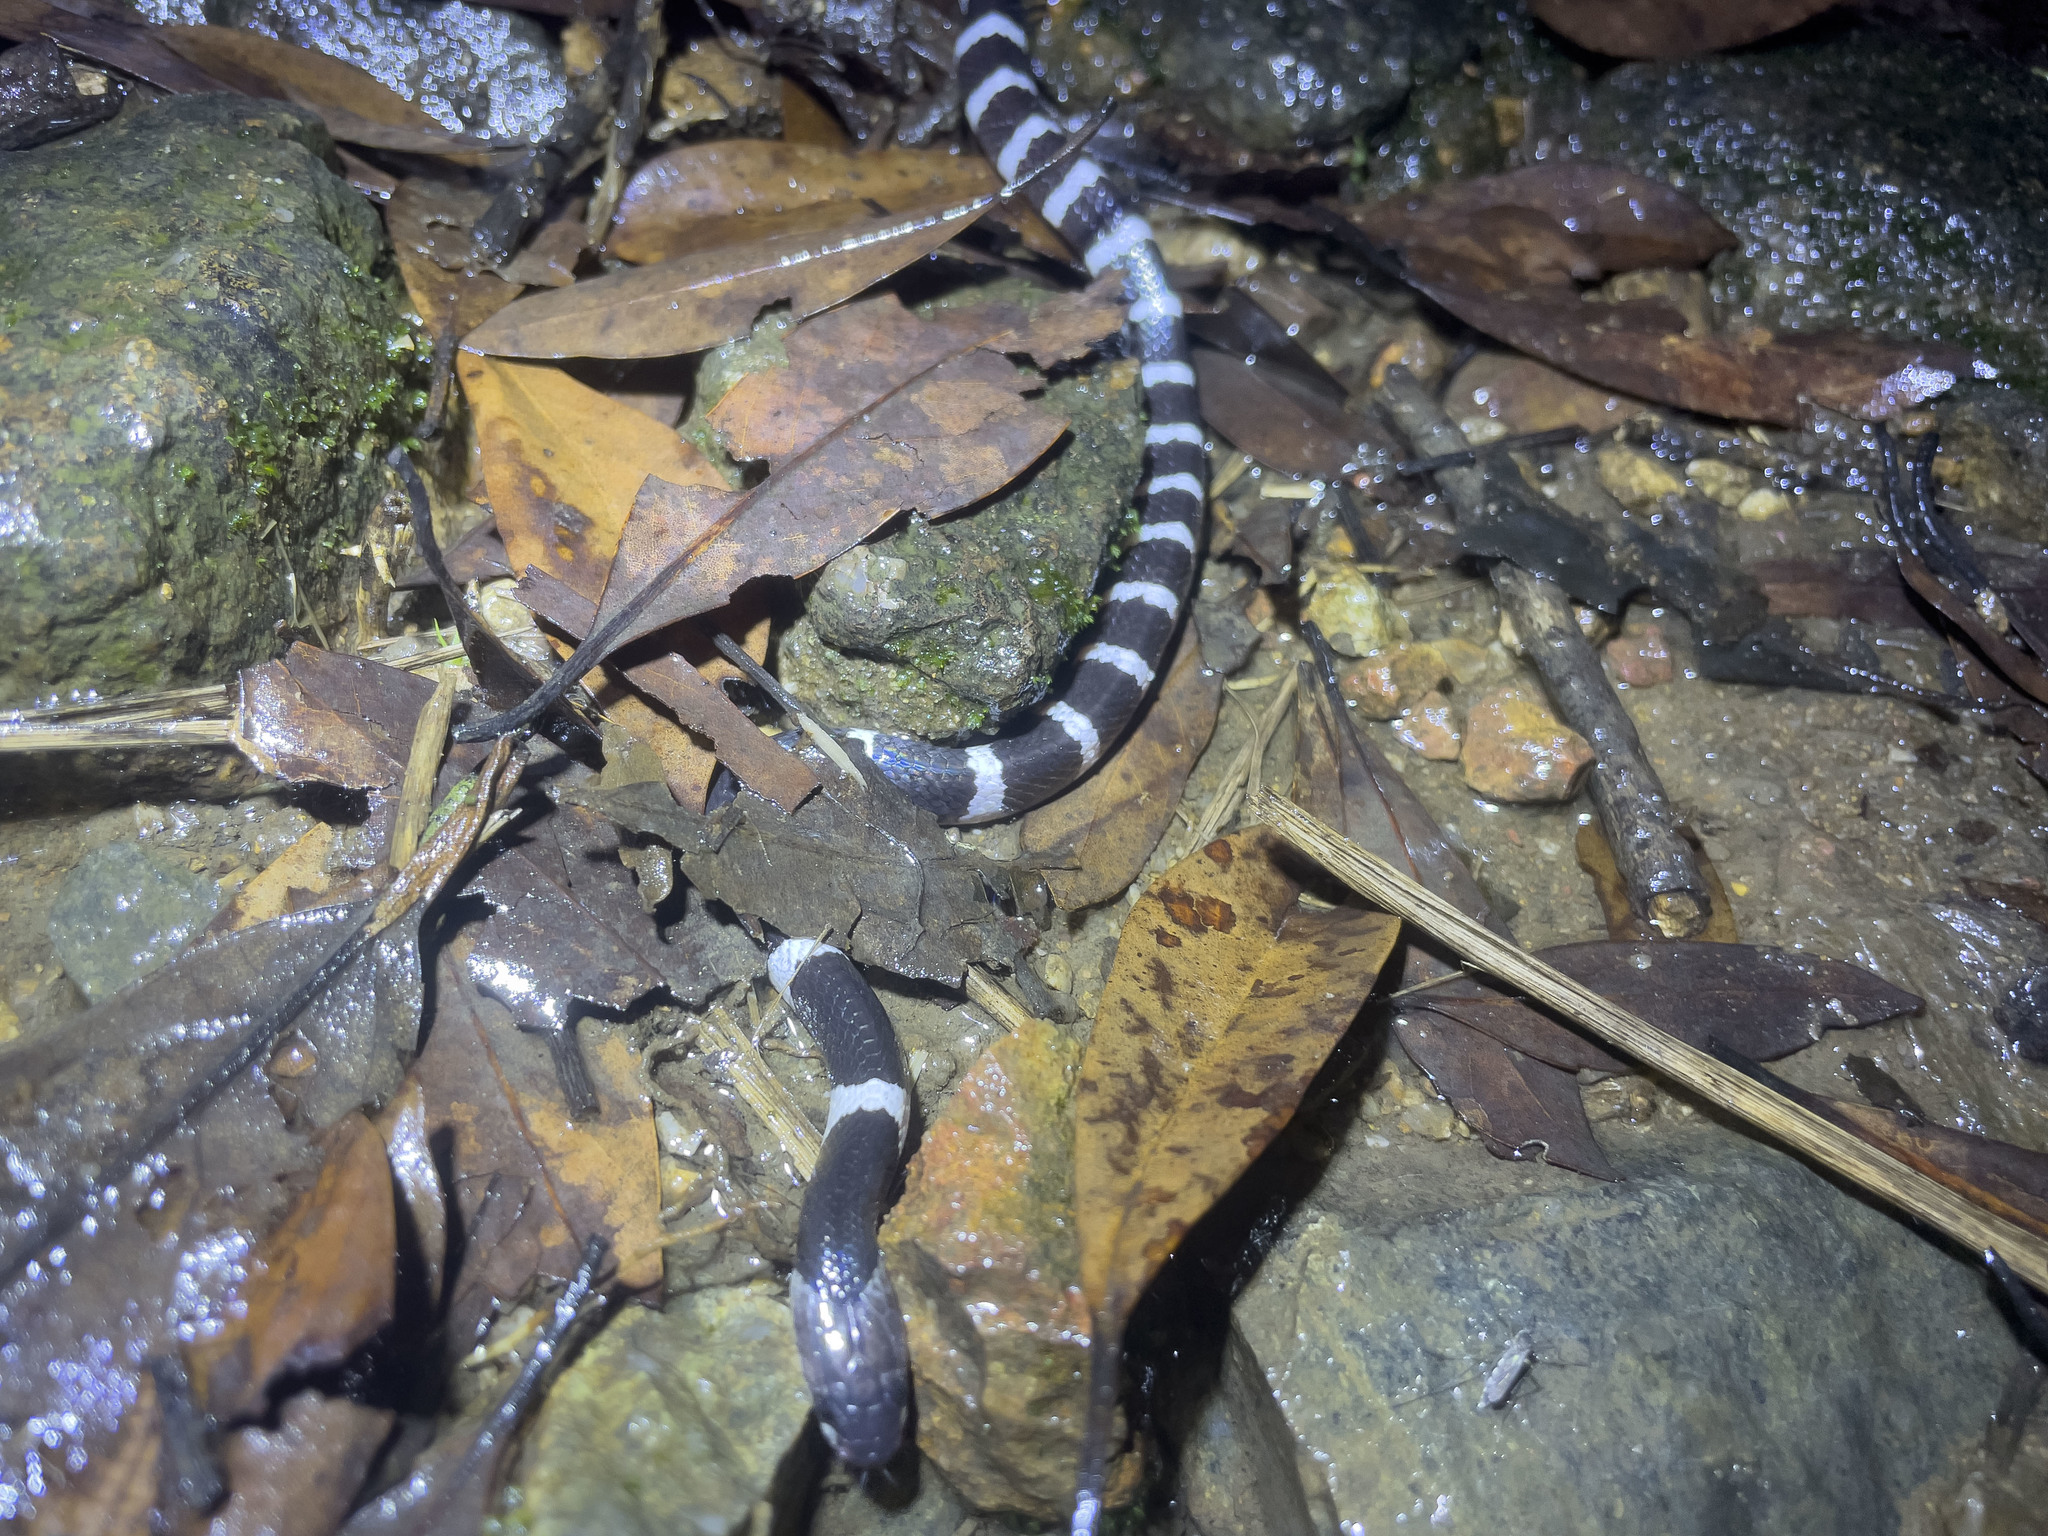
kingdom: Animalia
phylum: Chordata
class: Squamata
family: Elapidae
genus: Bungarus
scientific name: Bungarus multicinctus
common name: Many-banded krait
